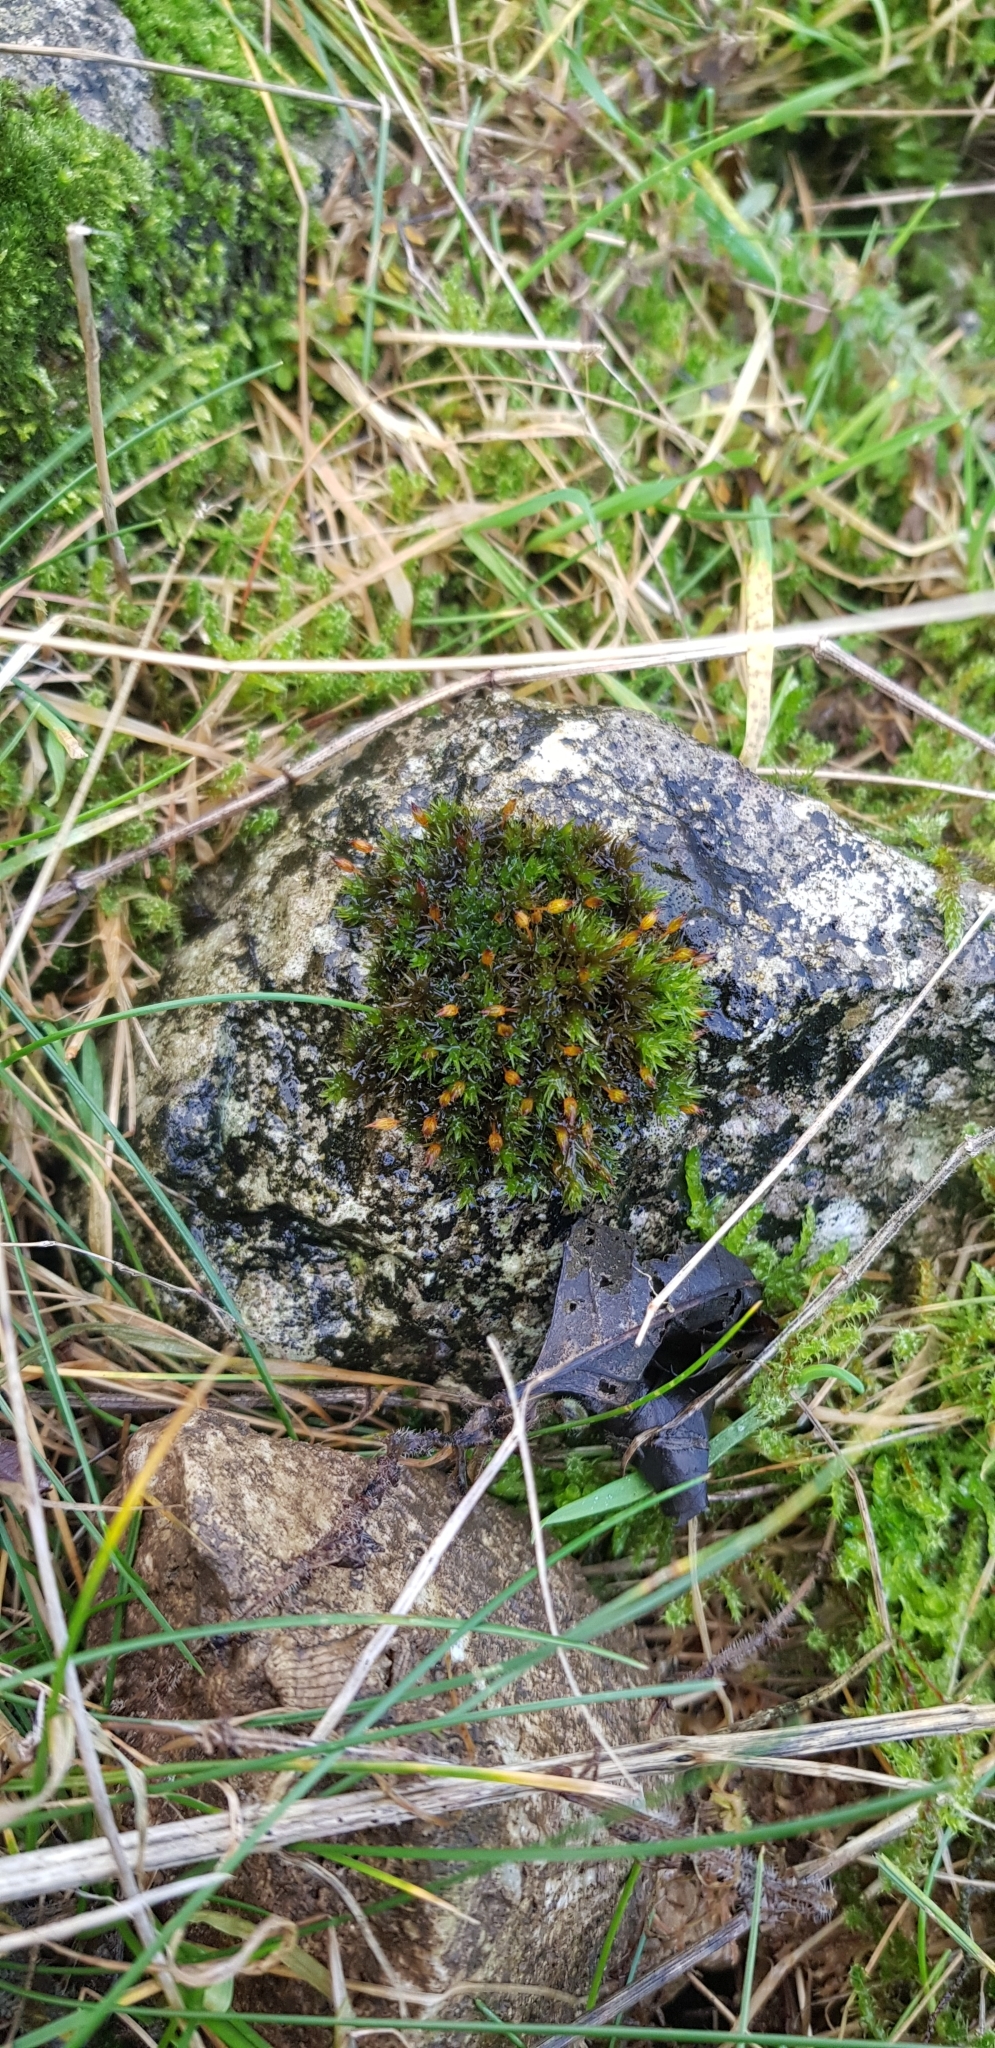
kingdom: Plantae
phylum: Bryophyta
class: Bryopsida
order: Orthotrichales
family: Orthotrichaceae
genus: Orthotrichum
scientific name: Orthotrichum anomalum
